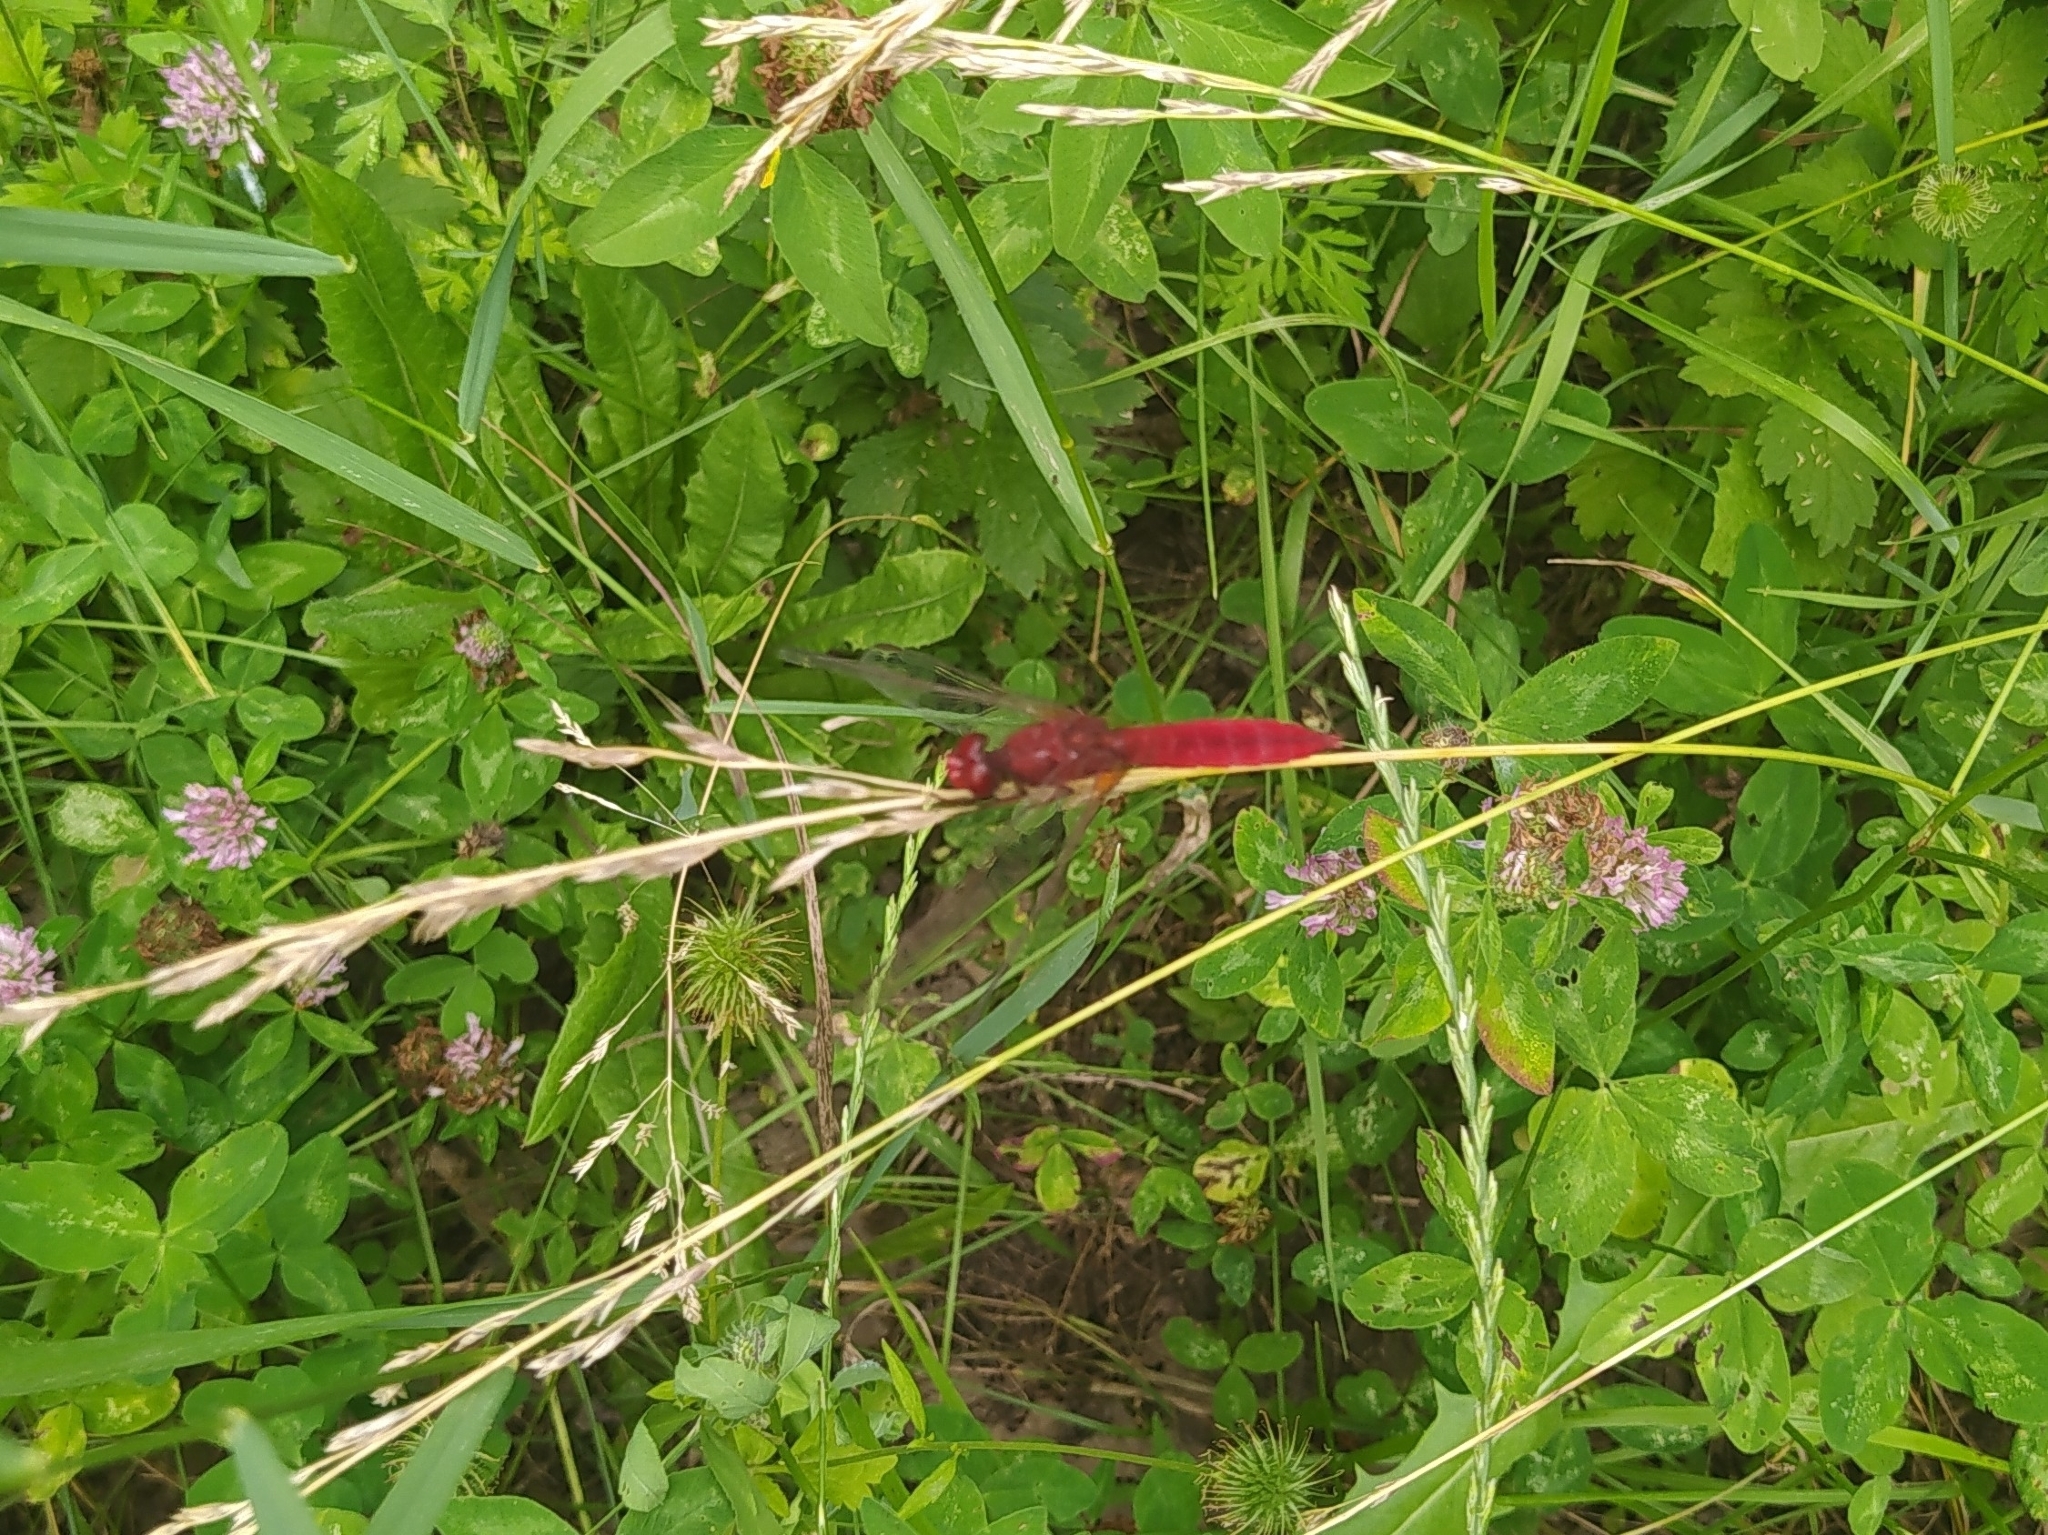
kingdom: Animalia
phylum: Arthropoda
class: Insecta
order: Odonata
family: Libellulidae
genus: Crocothemis
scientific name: Crocothemis erythraea
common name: Scarlet dragonfly
